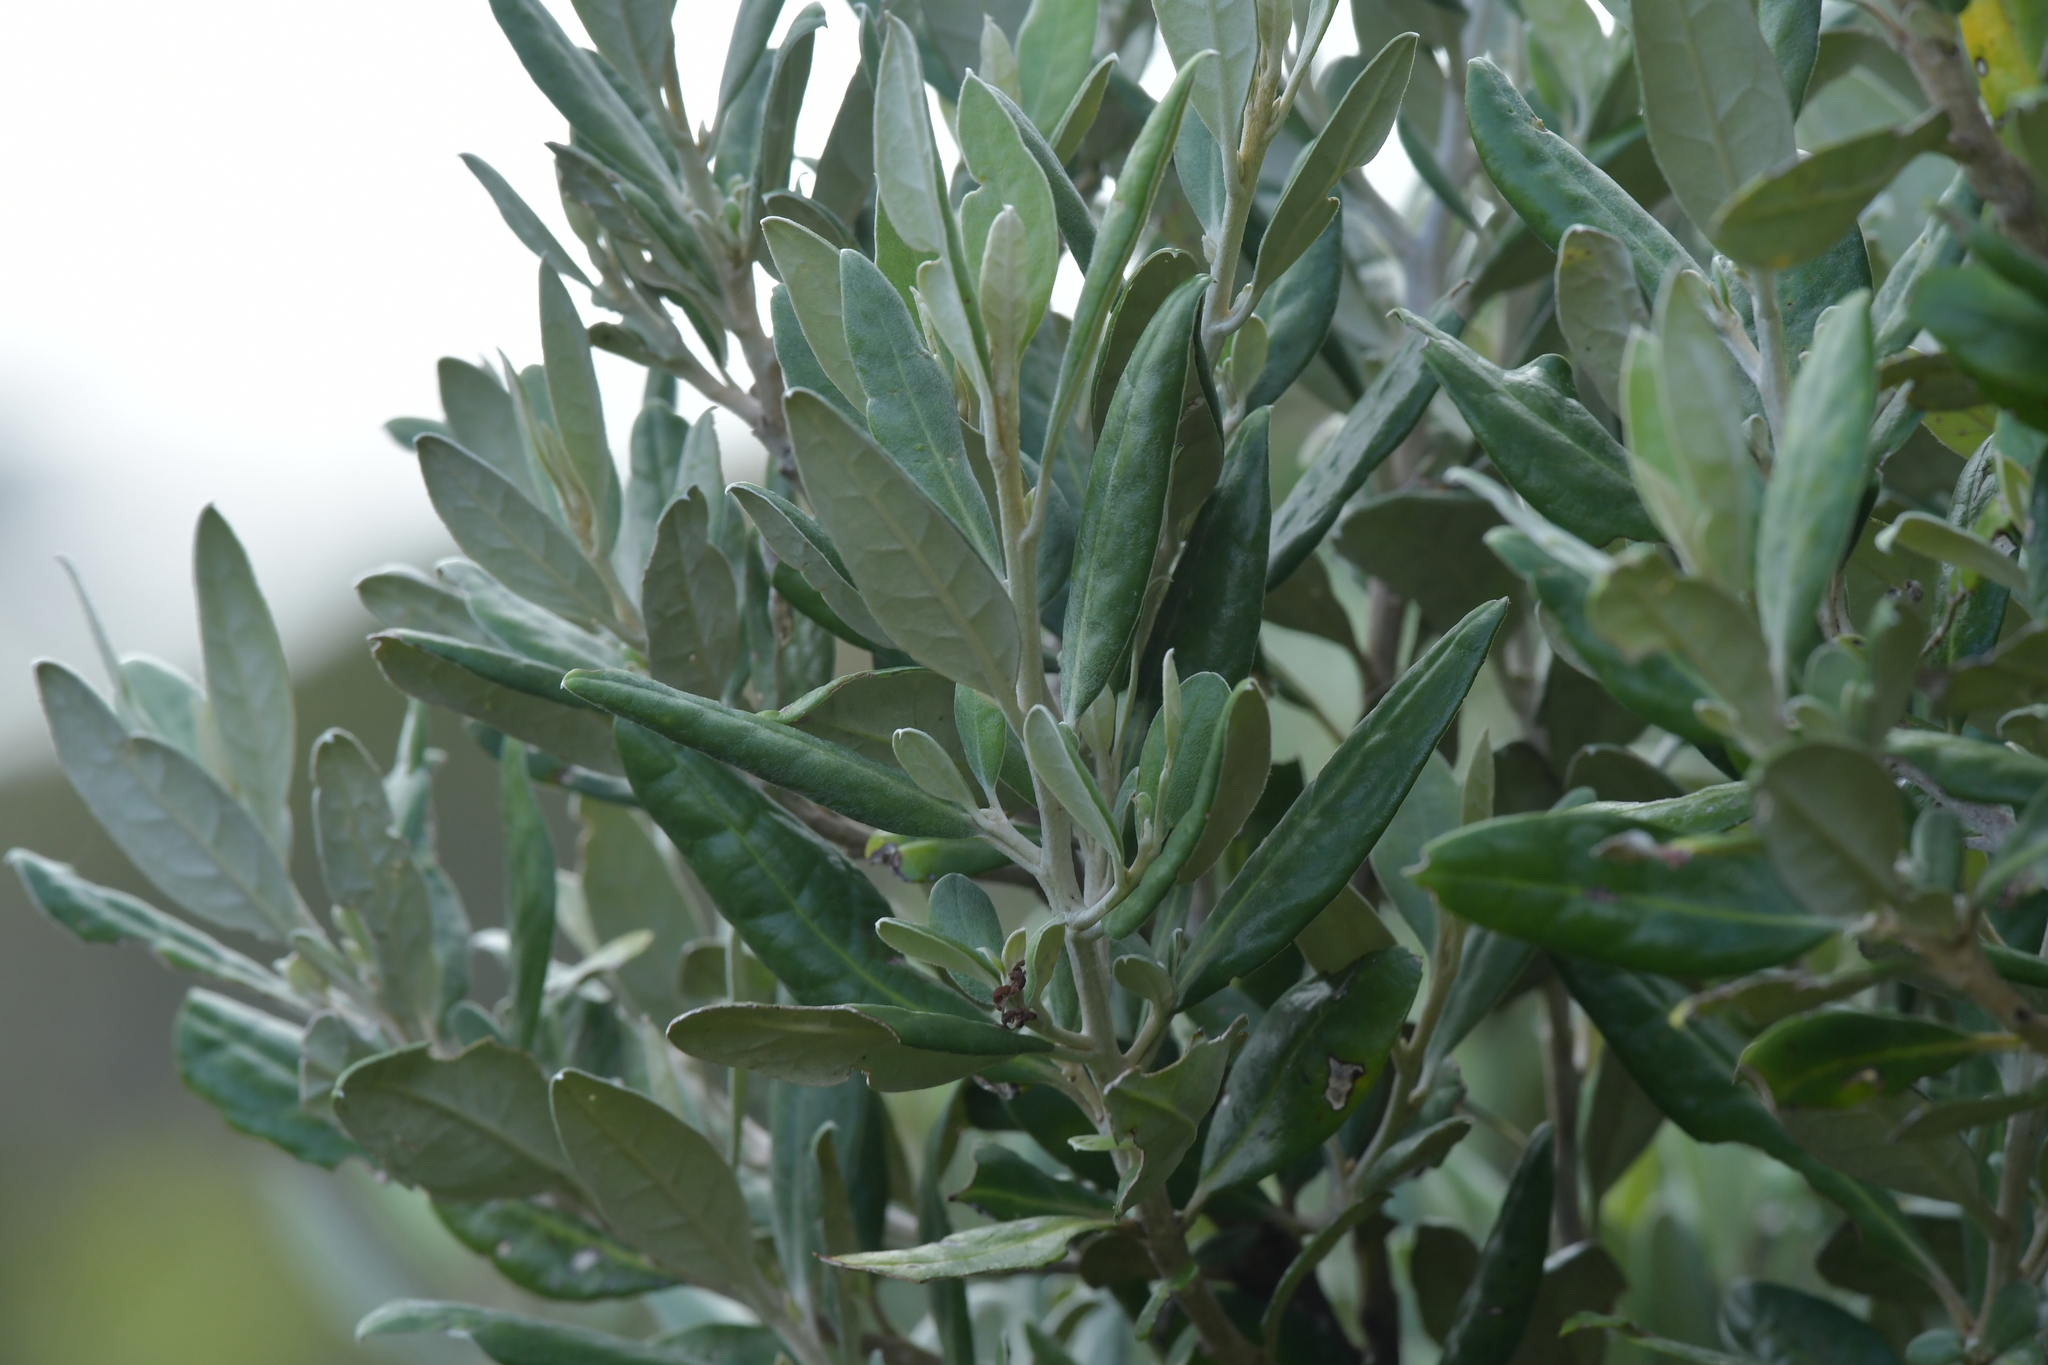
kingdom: Plantae
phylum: Tracheophyta
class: Magnoliopsida
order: Asterales
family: Argophyllaceae
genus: Corokia
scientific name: Corokia macrocarpa
